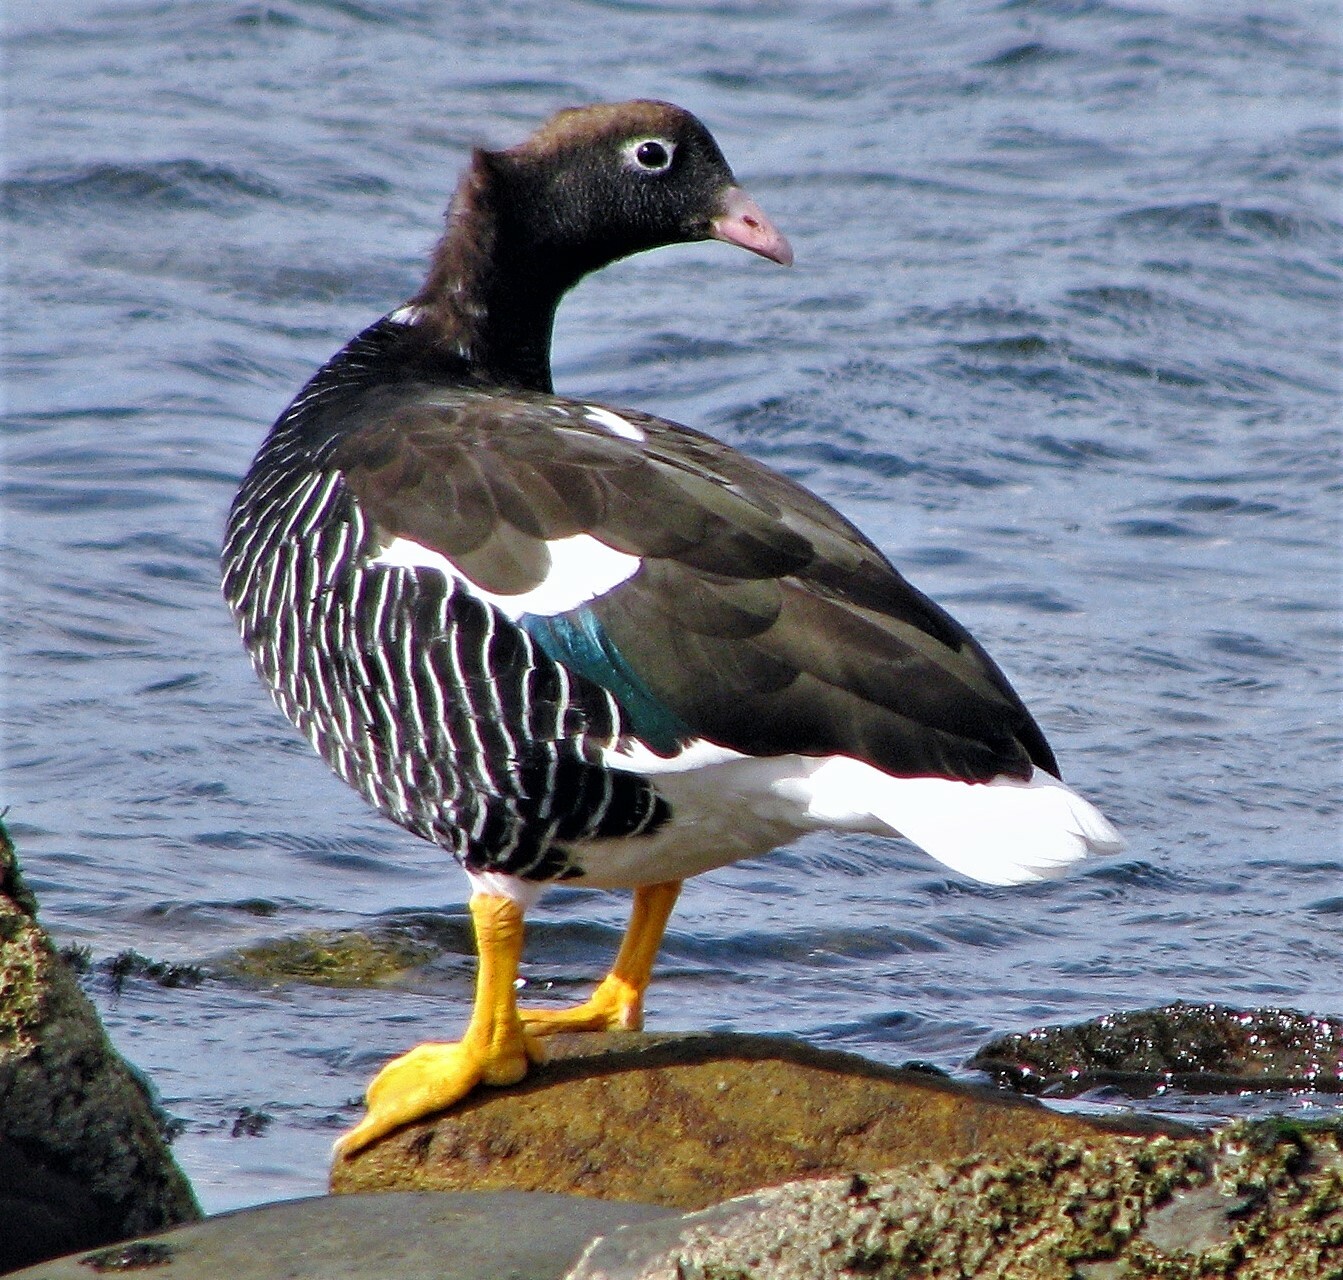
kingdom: Animalia
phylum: Chordata
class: Aves
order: Anseriformes
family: Anatidae
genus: Chloephaga
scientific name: Chloephaga hybrida
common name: Kelp goose
